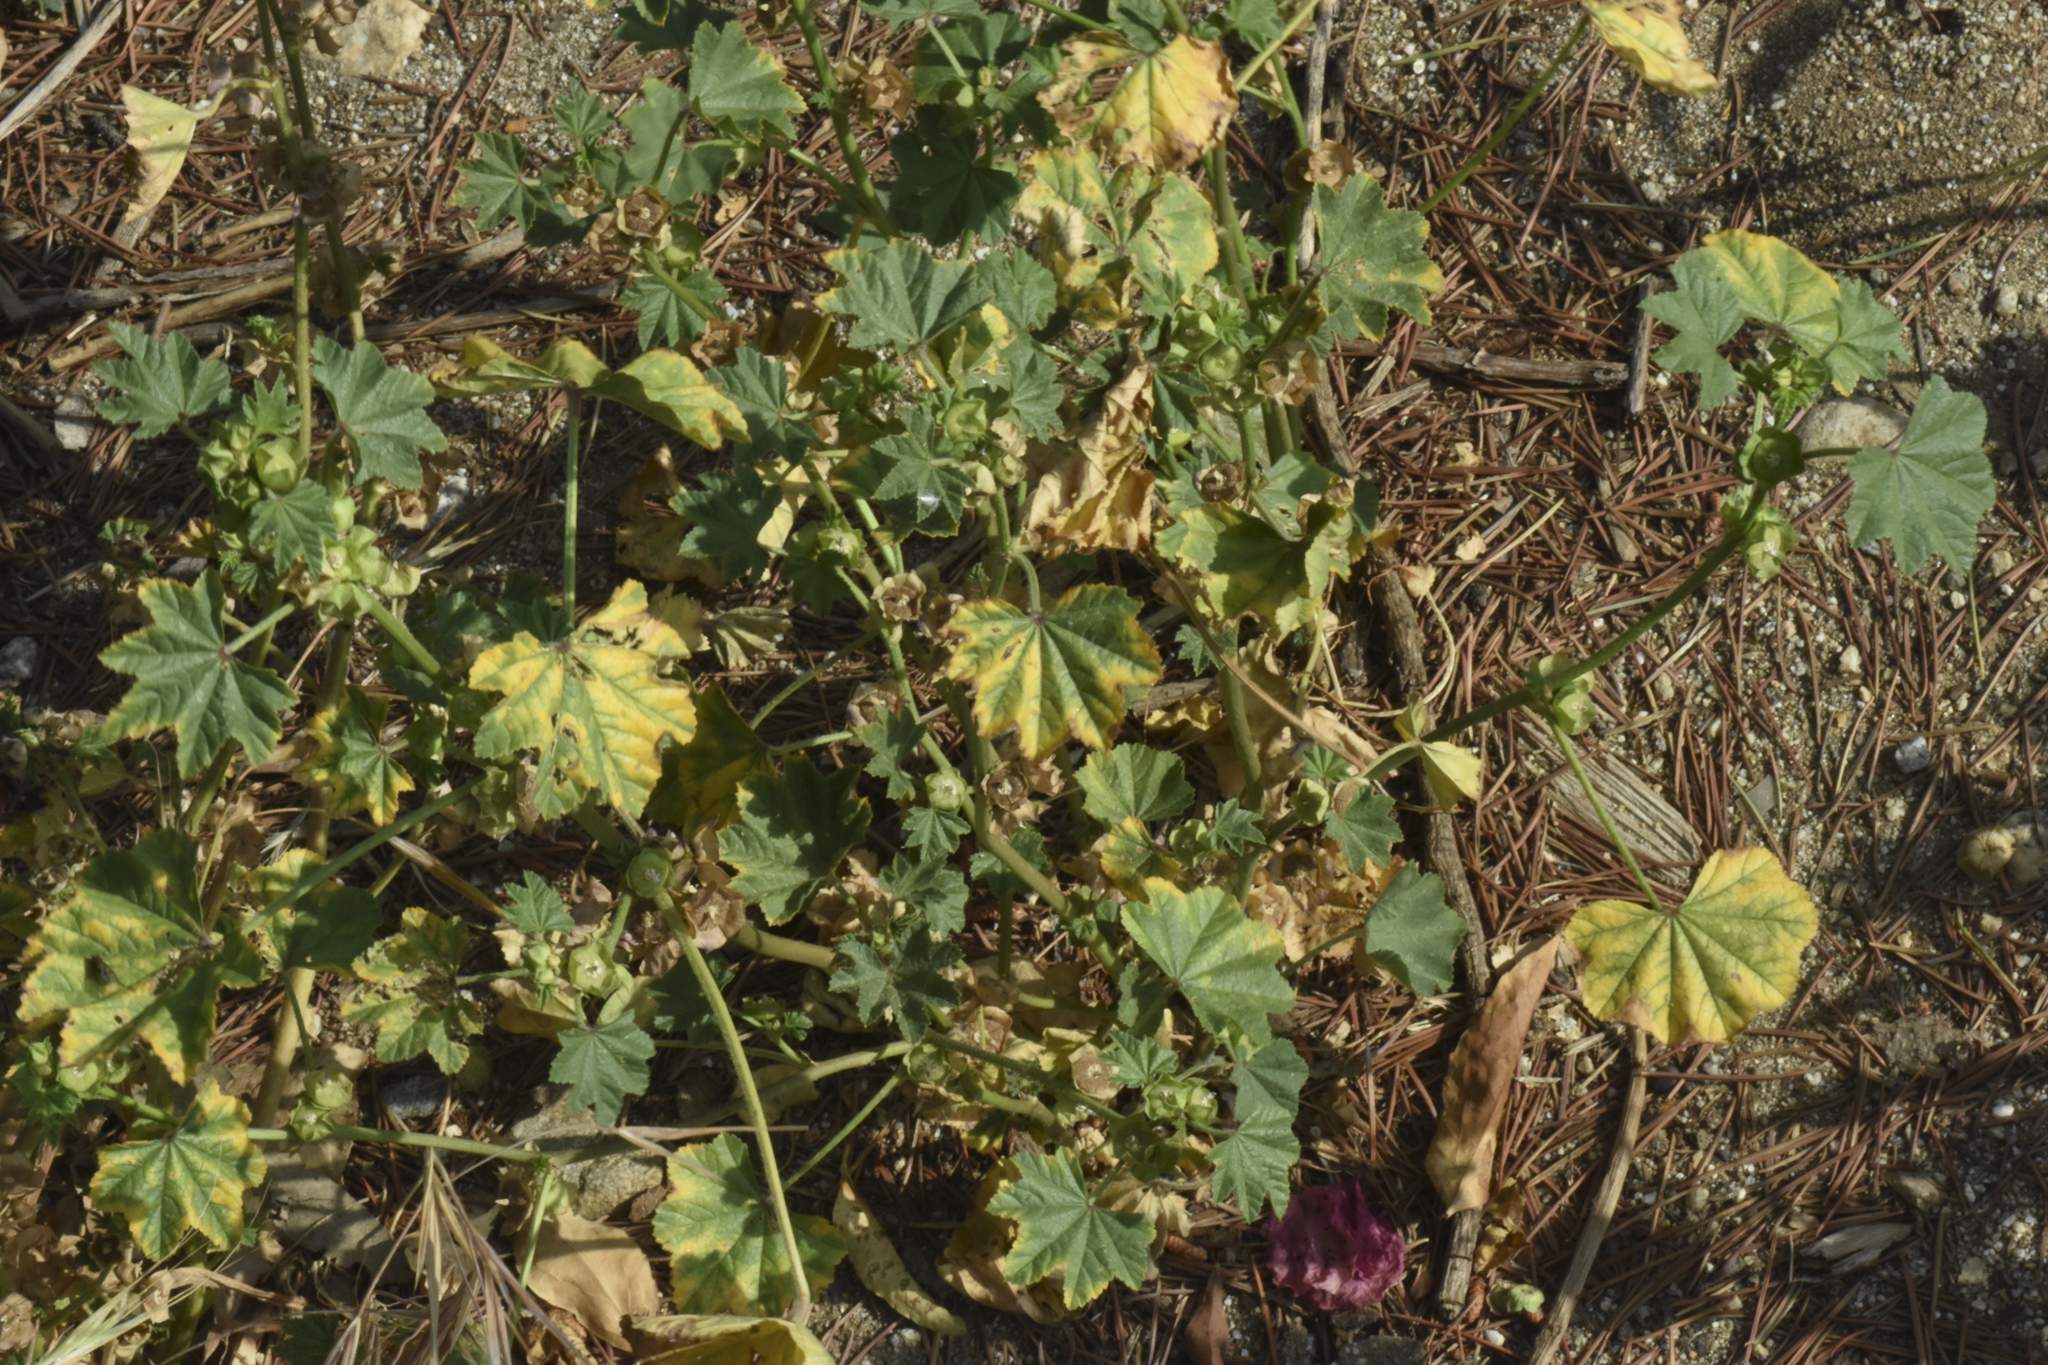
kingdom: Plantae
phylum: Tracheophyta
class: Magnoliopsida
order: Malvales
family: Malvaceae
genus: Malva
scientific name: Malva parviflora
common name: Least mallow
